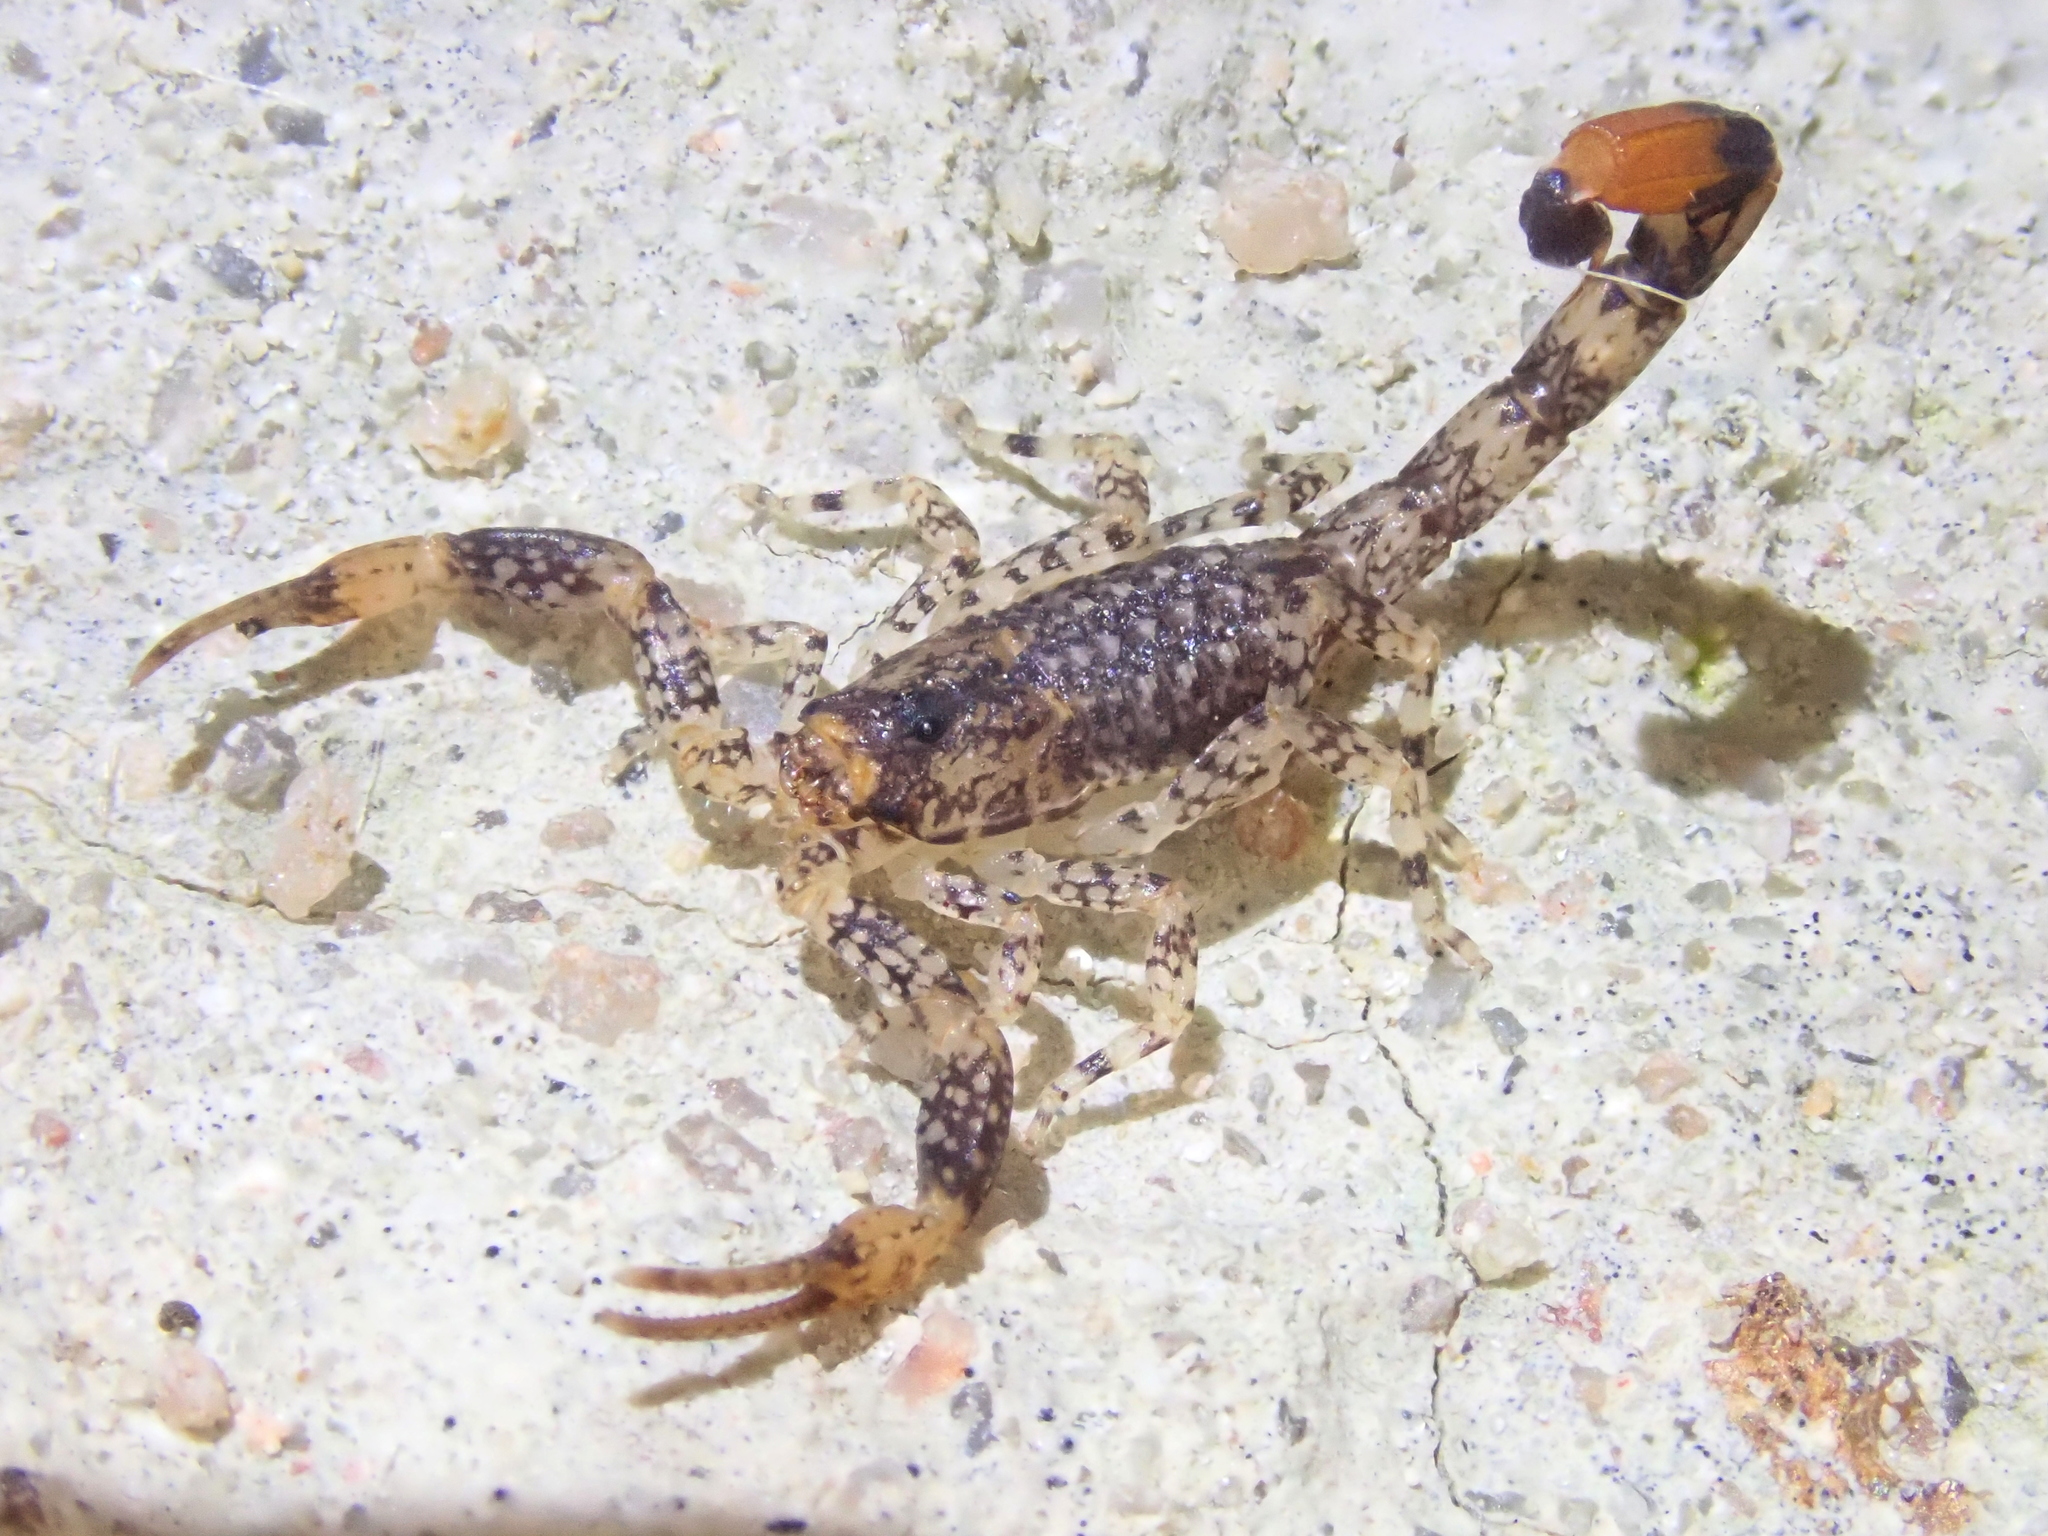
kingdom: Animalia
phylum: Arthropoda
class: Arachnida
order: Scorpiones
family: Buthidae
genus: Tityus
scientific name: Tityus mattogrossensis
